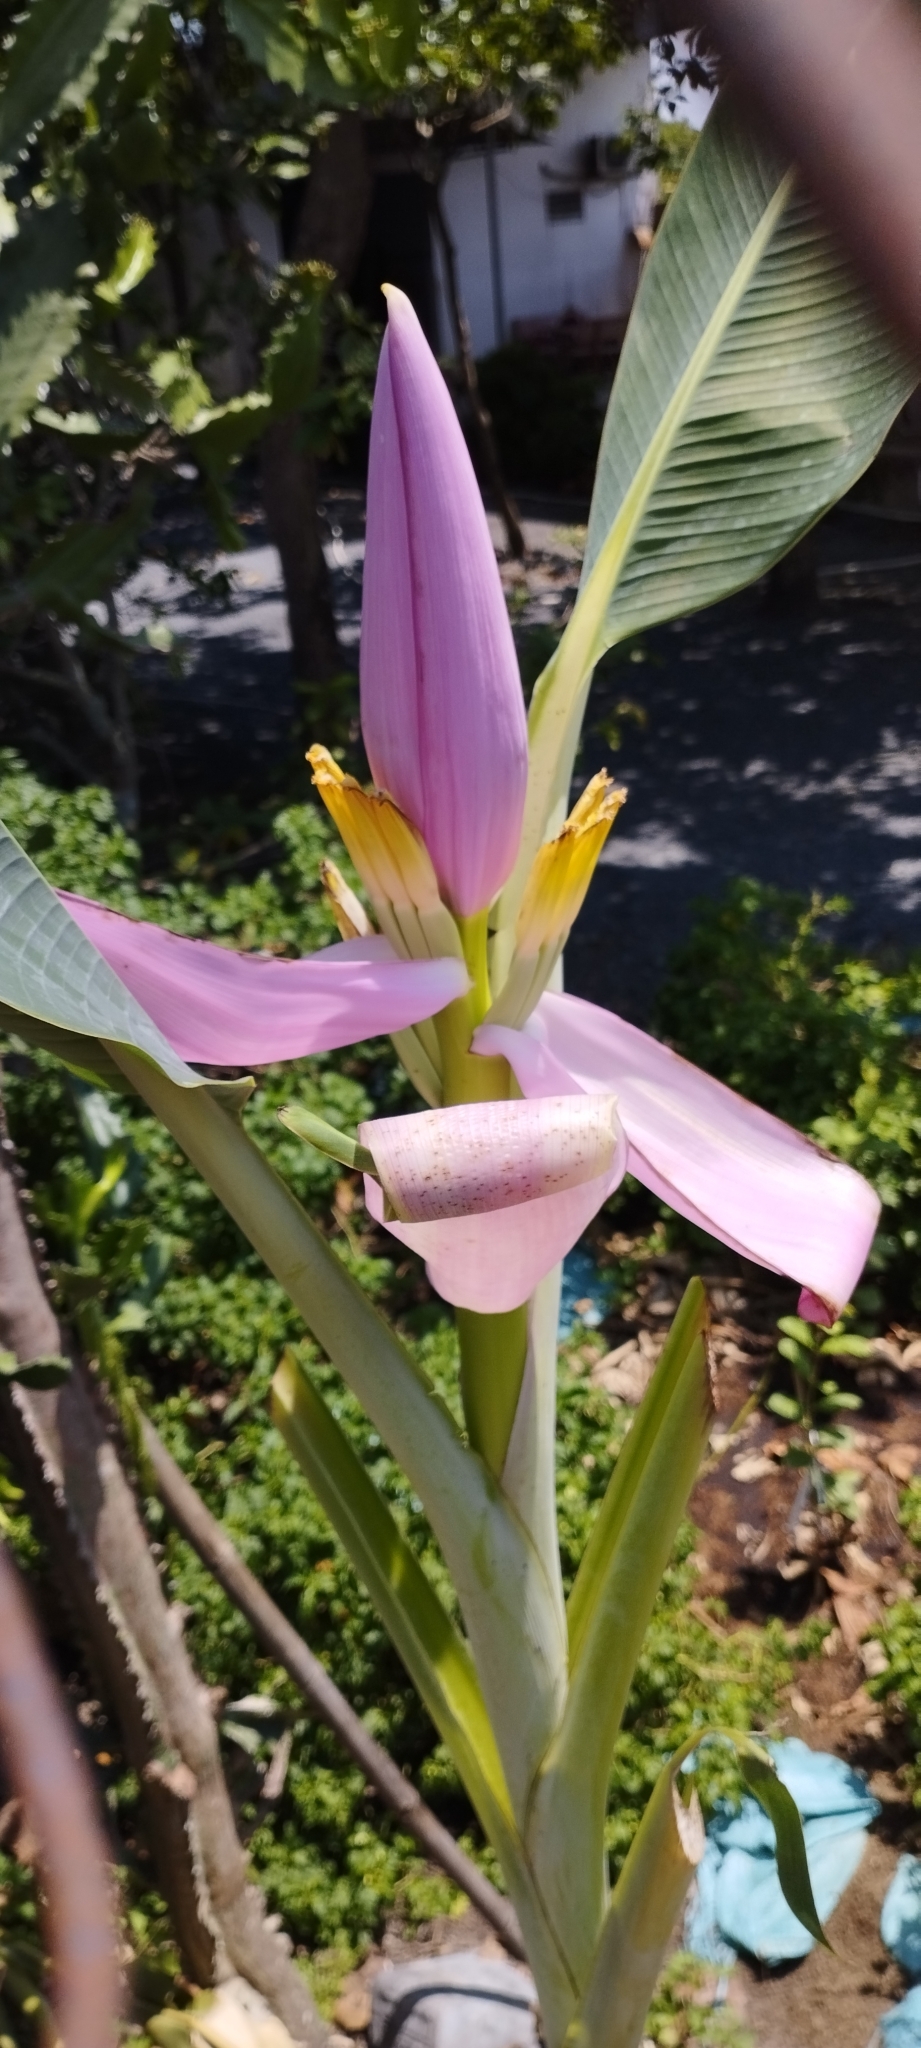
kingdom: Plantae
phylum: Tracheophyta
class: Liliopsida
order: Zingiberales
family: Musaceae
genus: Musa
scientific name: Musa ornata
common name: Flowering banana
